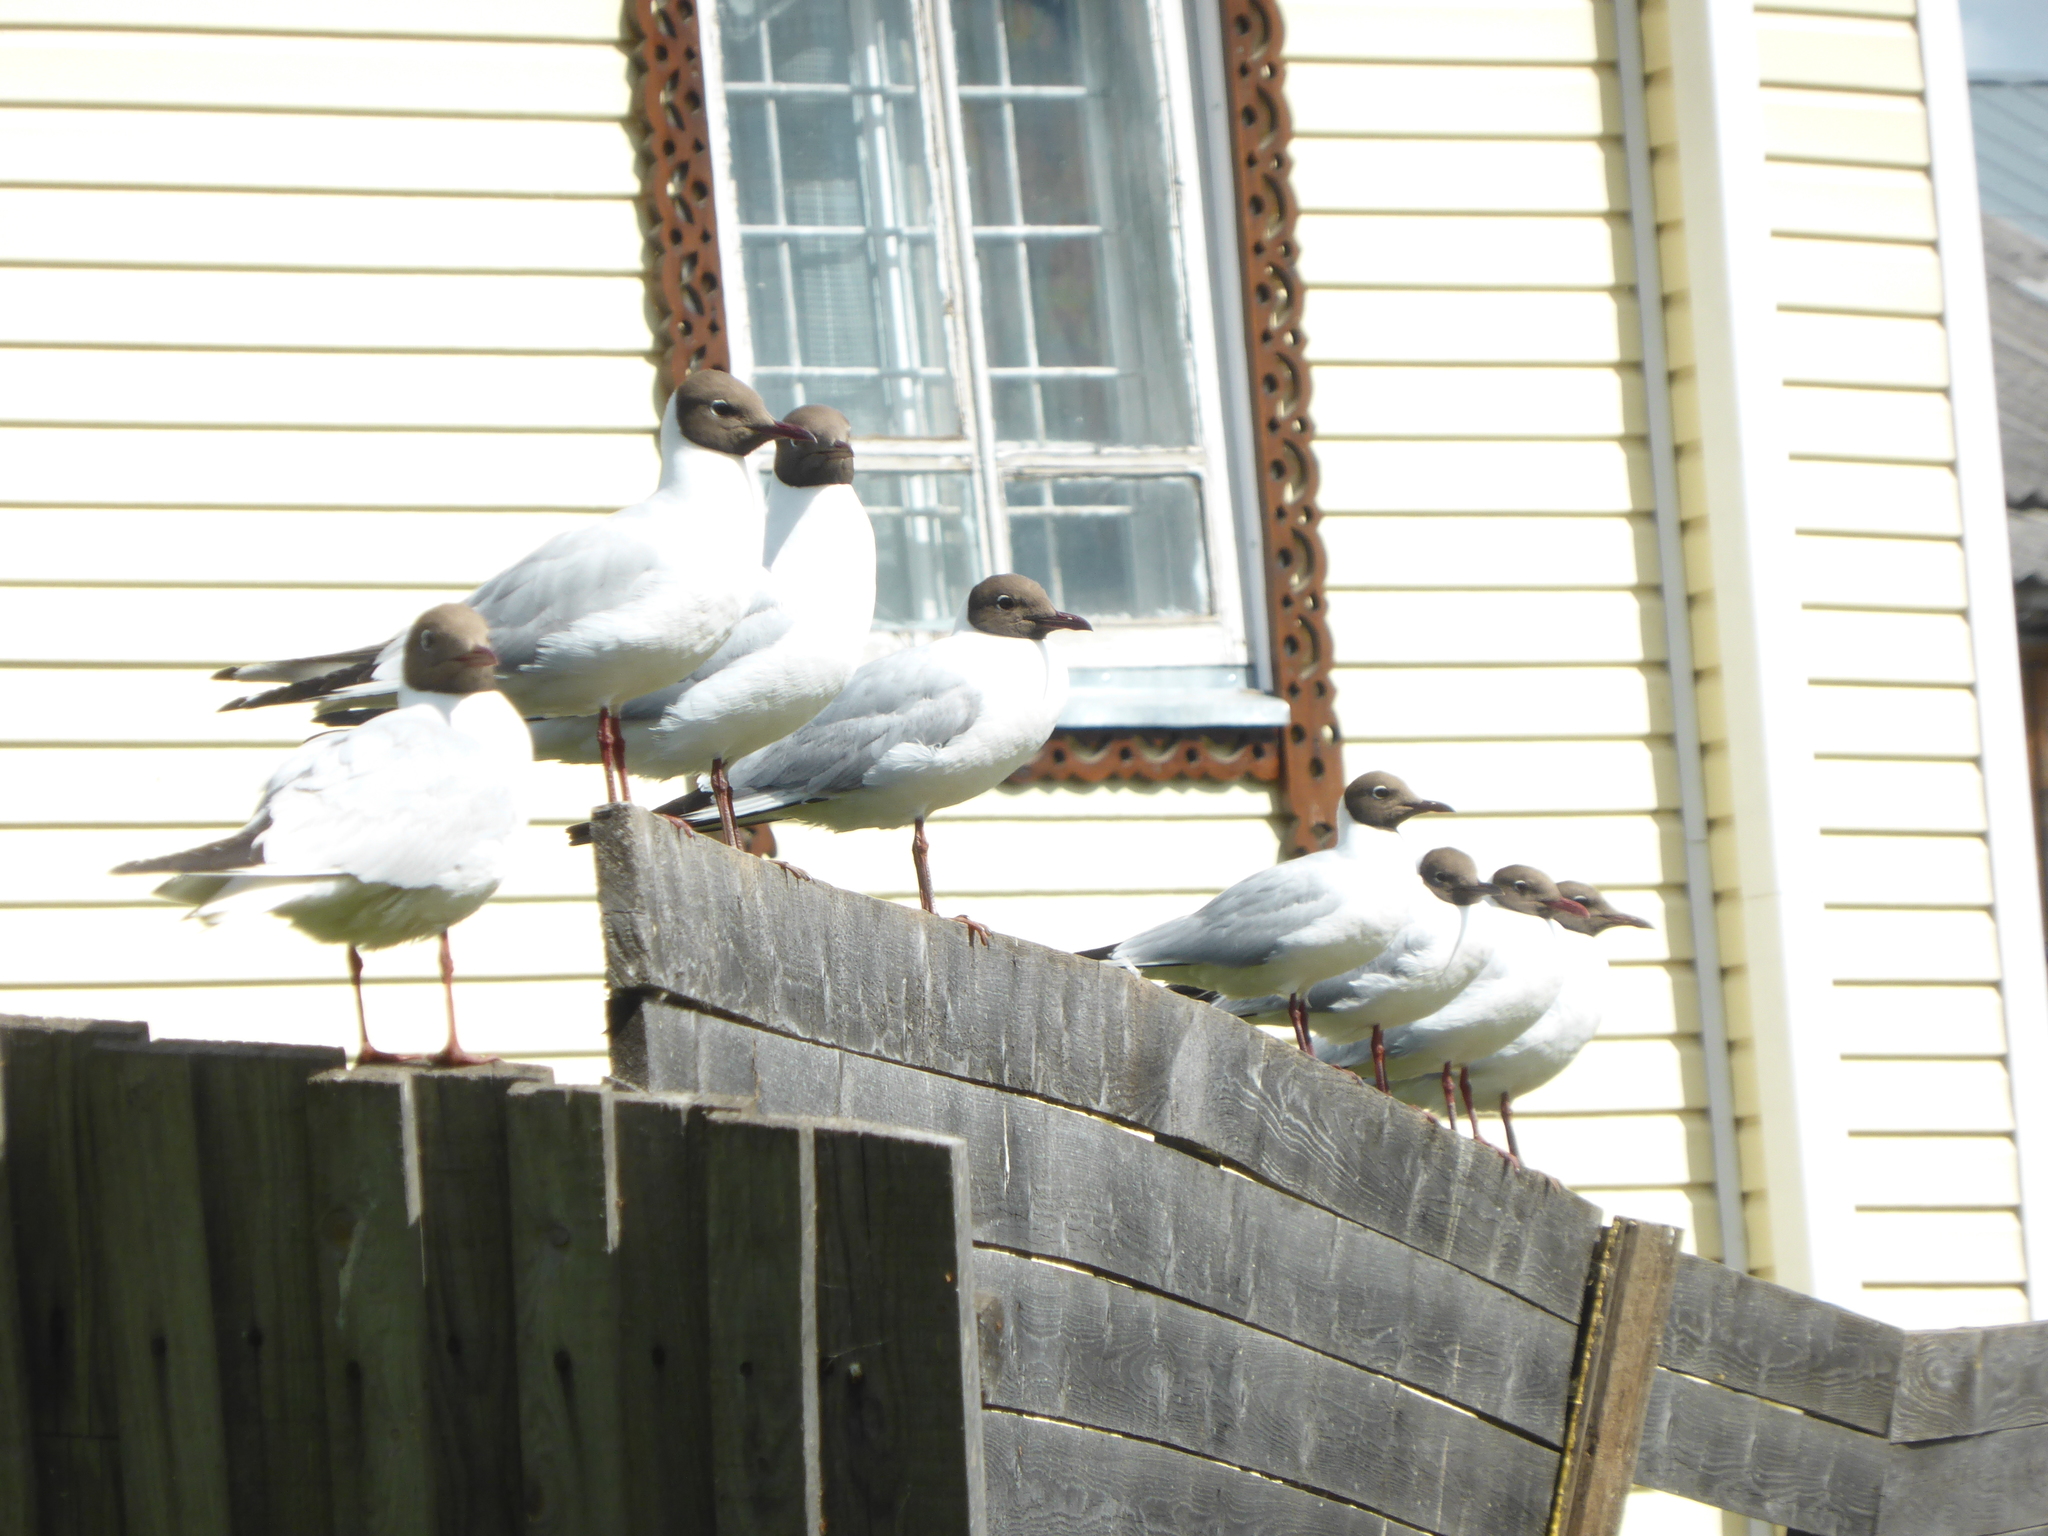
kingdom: Animalia
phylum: Chordata
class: Aves
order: Charadriiformes
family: Laridae
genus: Chroicocephalus
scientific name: Chroicocephalus ridibundus
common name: Black-headed gull
